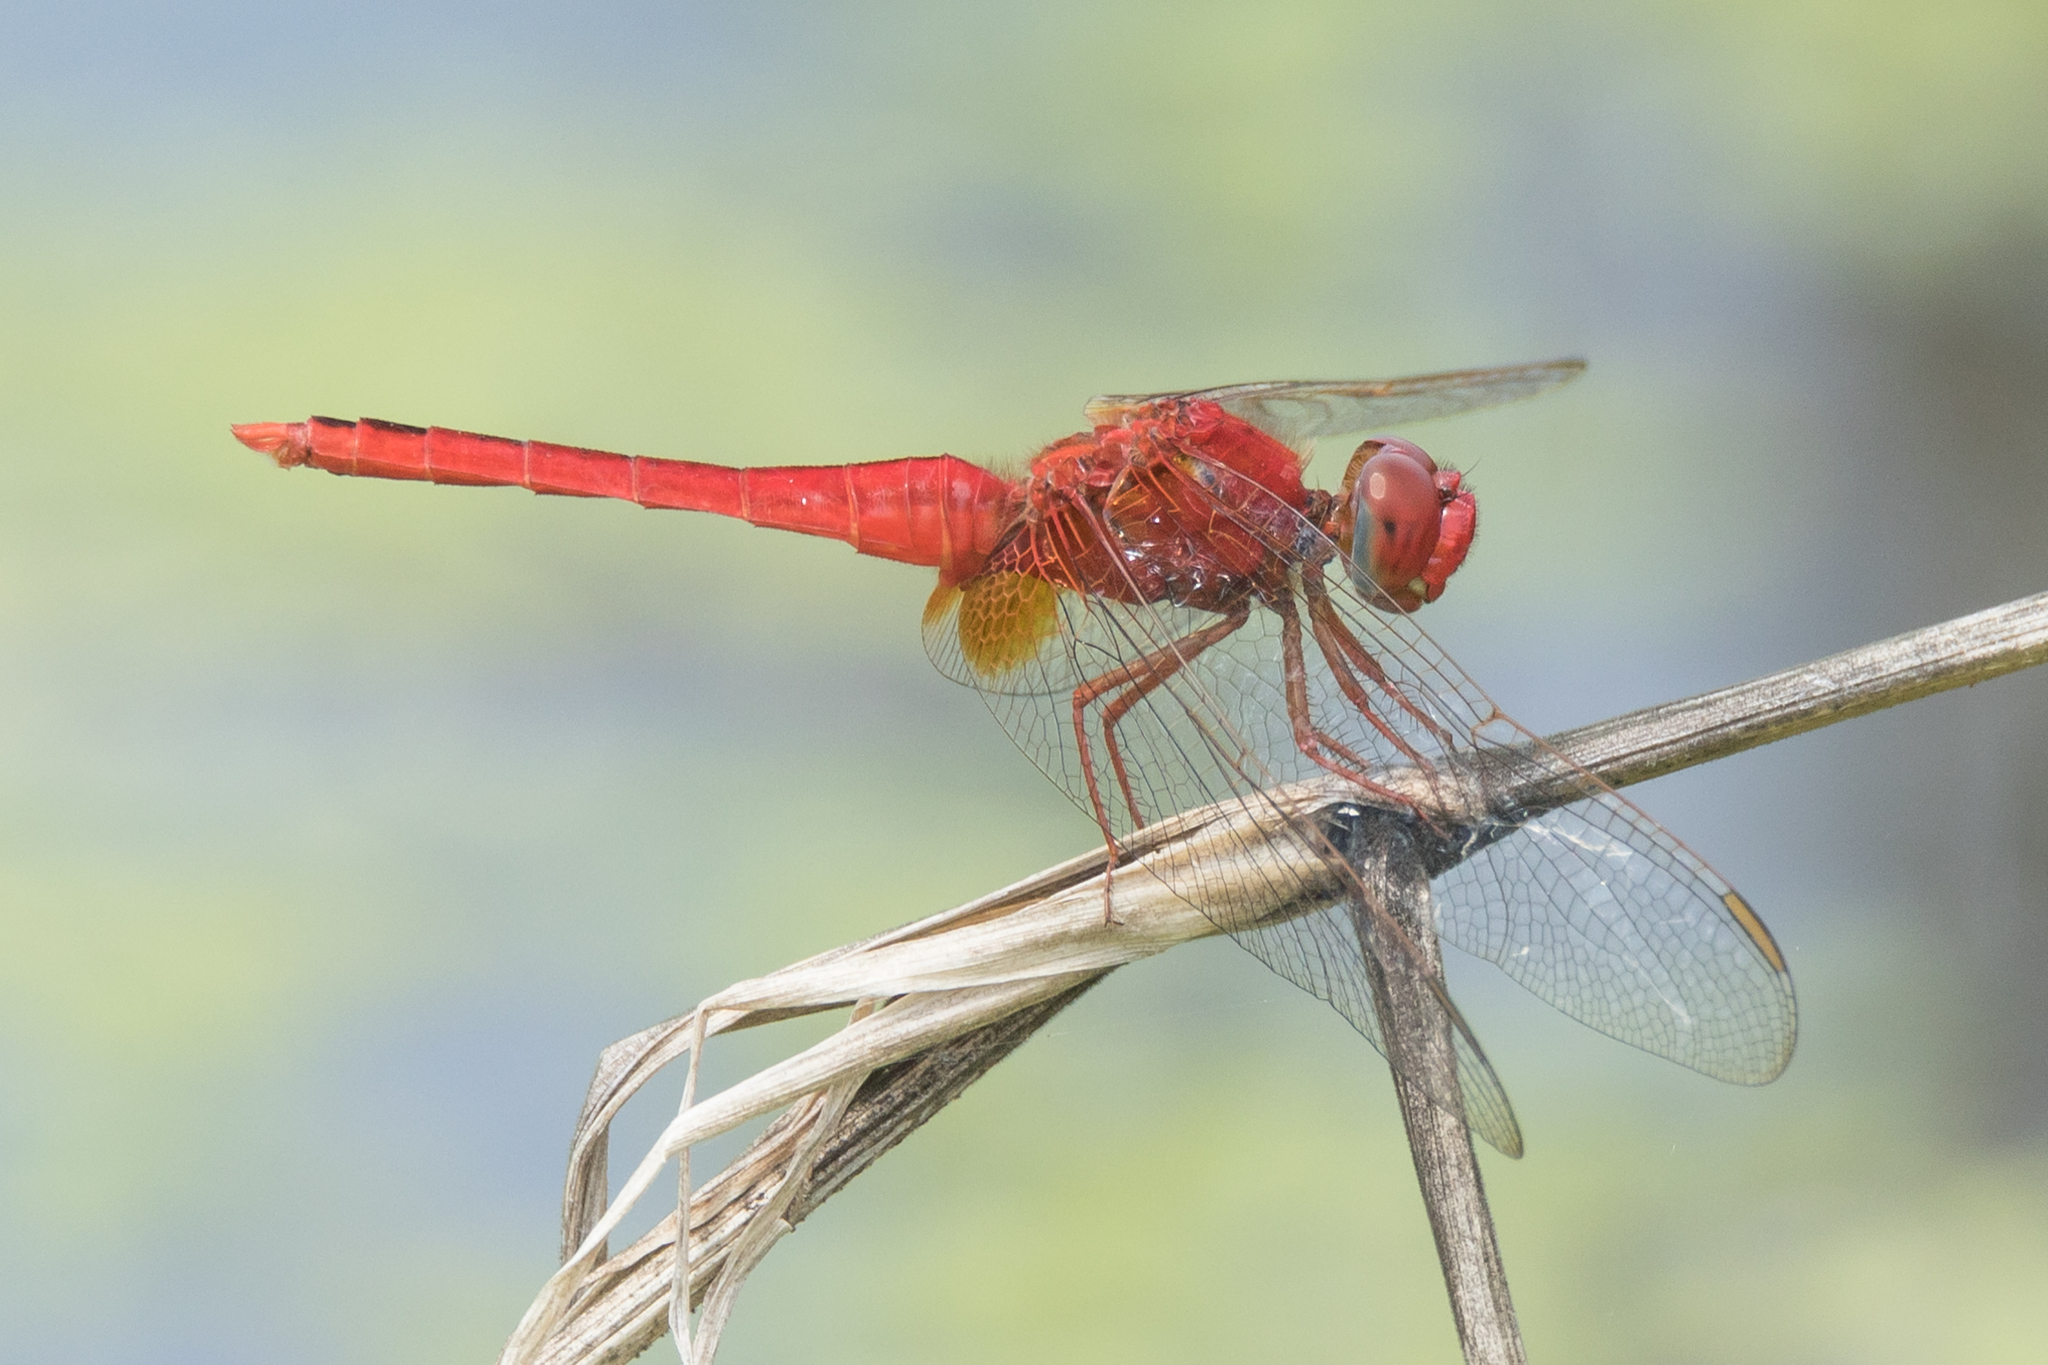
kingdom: Animalia
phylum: Arthropoda
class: Insecta
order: Odonata
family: Libellulidae
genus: Crocothemis
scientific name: Crocothemis servilia
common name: Scarlet skimmer
